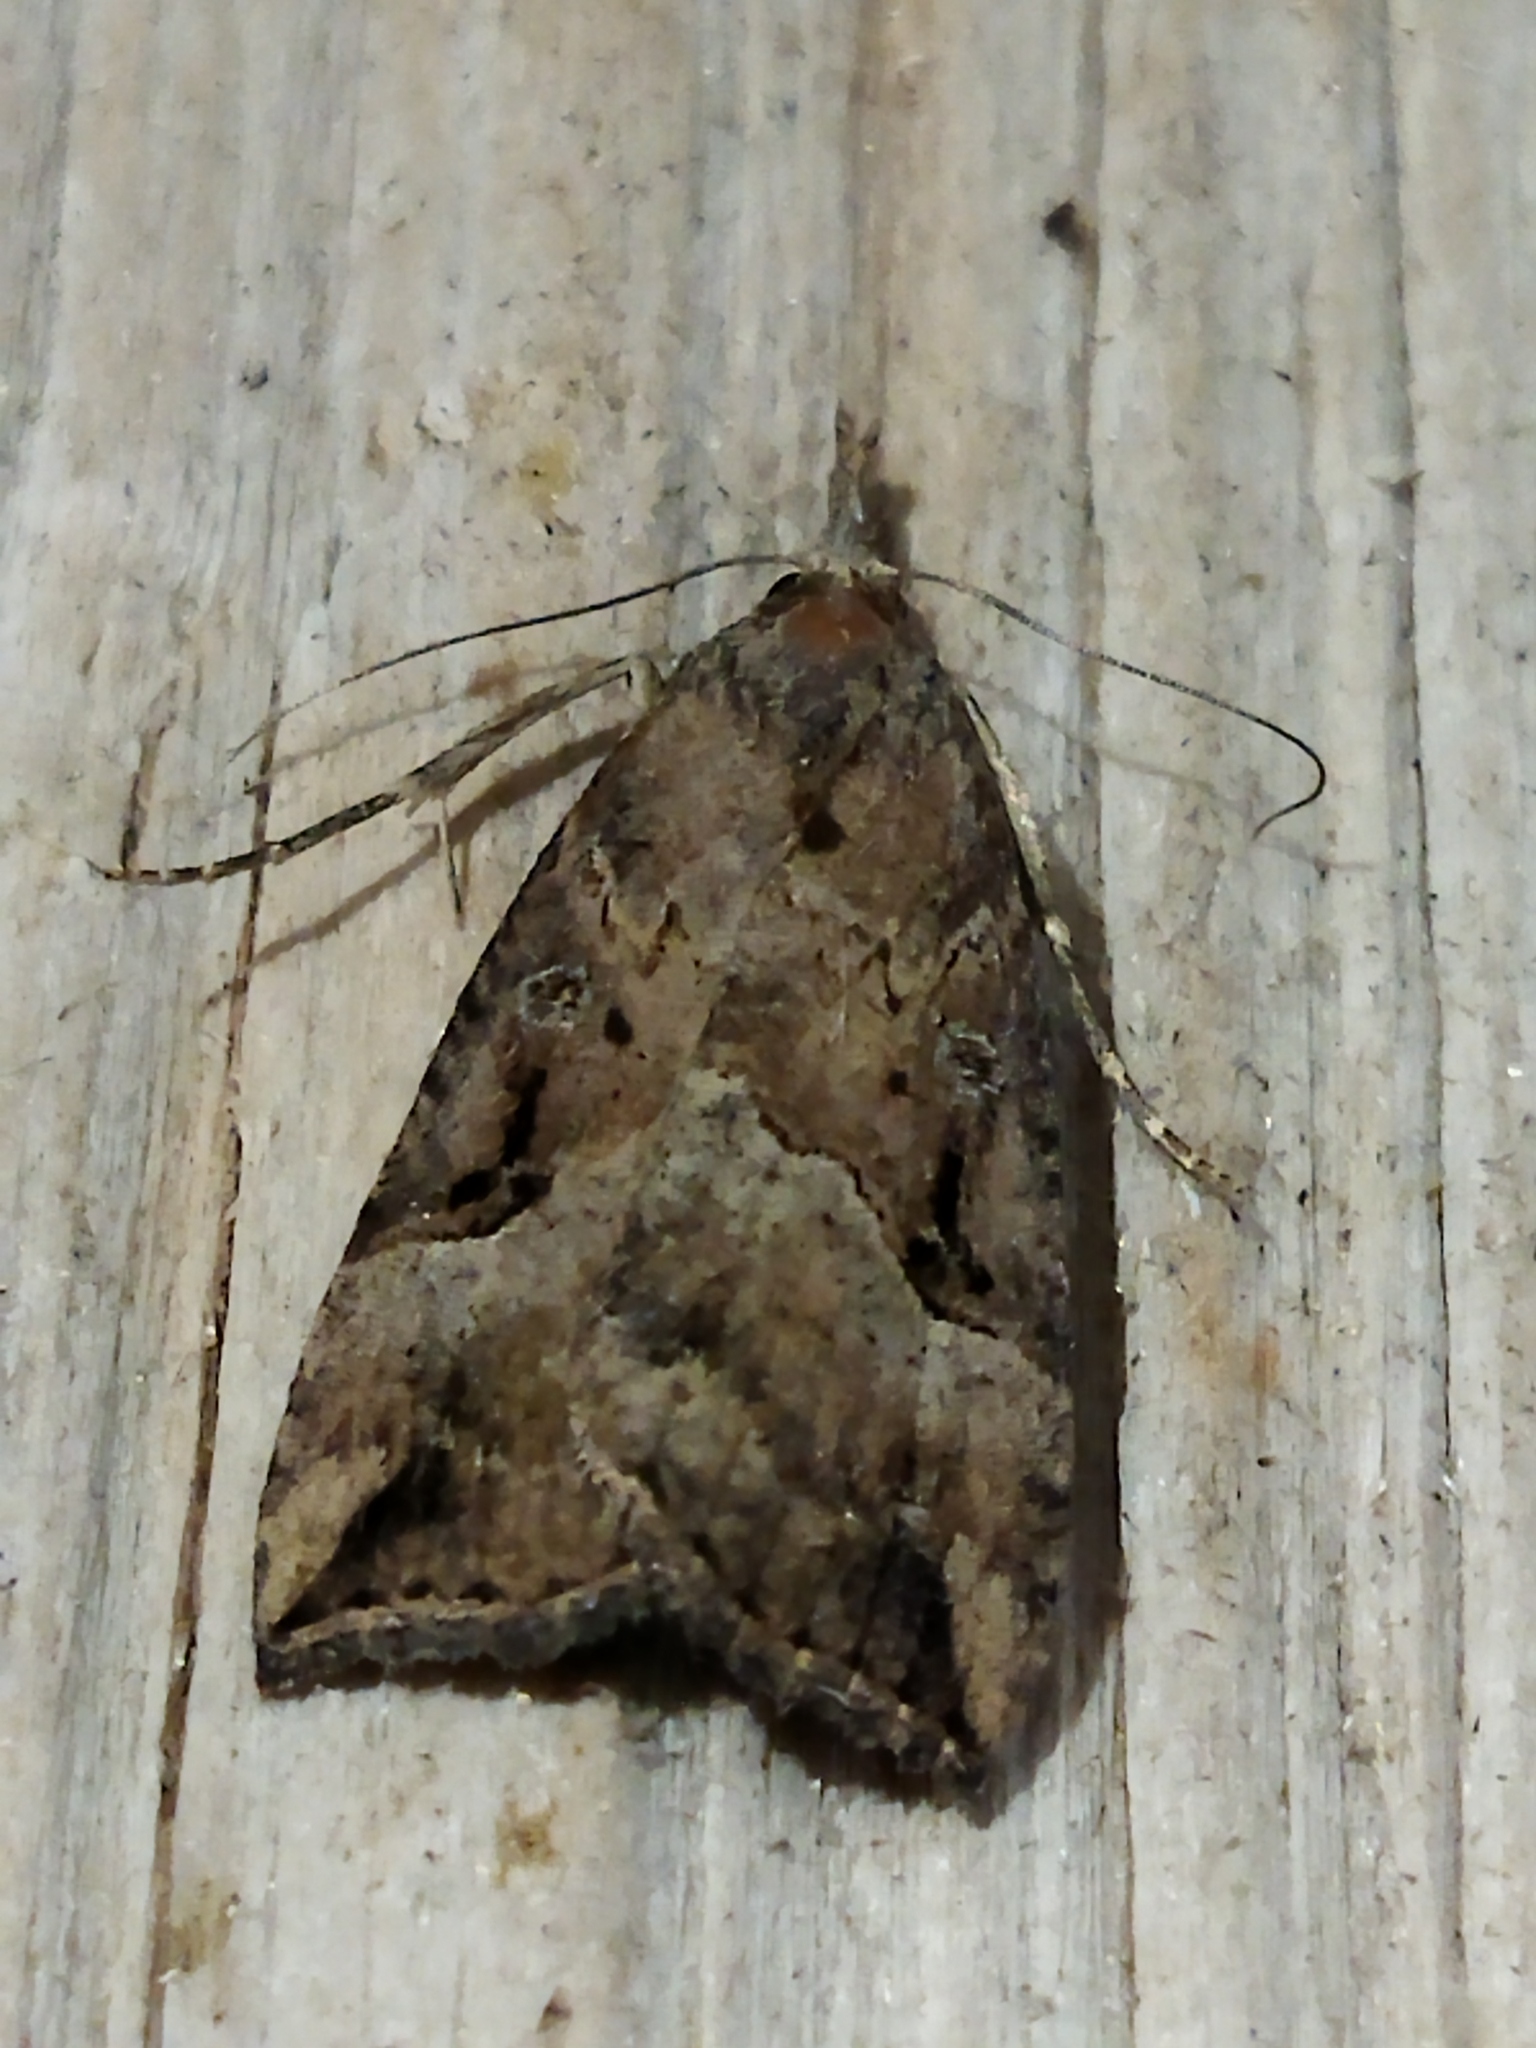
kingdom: Animalia
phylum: Arthropoda
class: Insecta
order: Lepidoptera
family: Erebidae
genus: Hypena
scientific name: Hypena rostralis
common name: Buttoned snout
